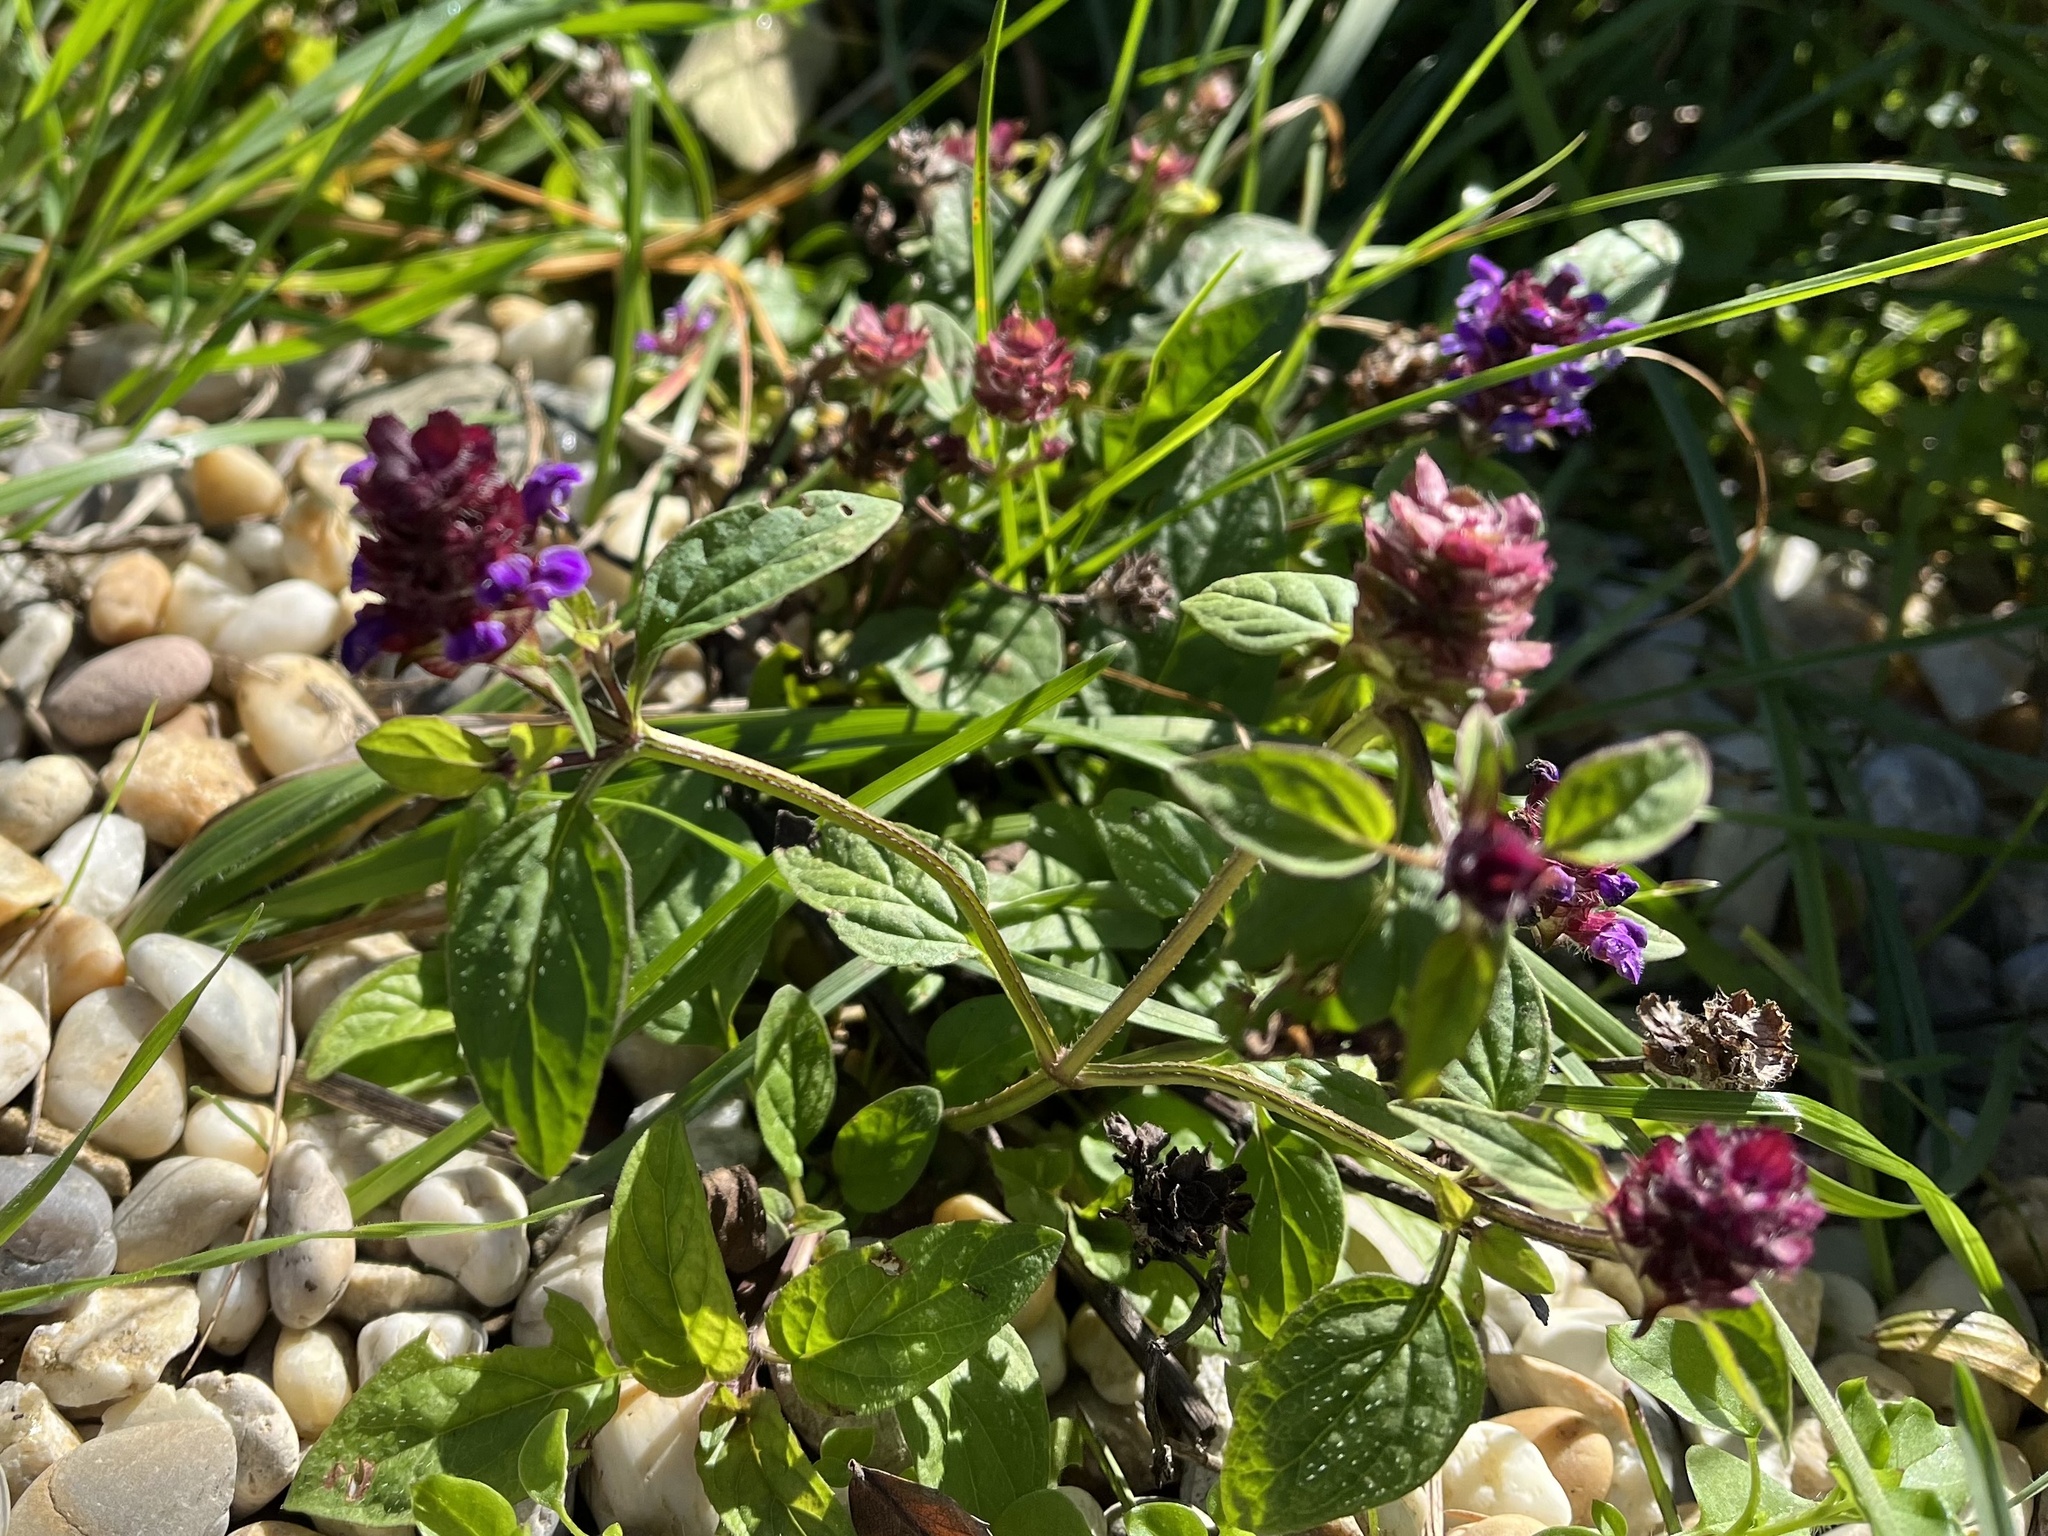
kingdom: Plantae
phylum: Tracheophyta
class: Magnoliopsida
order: Lamiales
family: Lamiaceae
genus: Prunella
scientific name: Prunella vulgaris
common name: Heal-all
